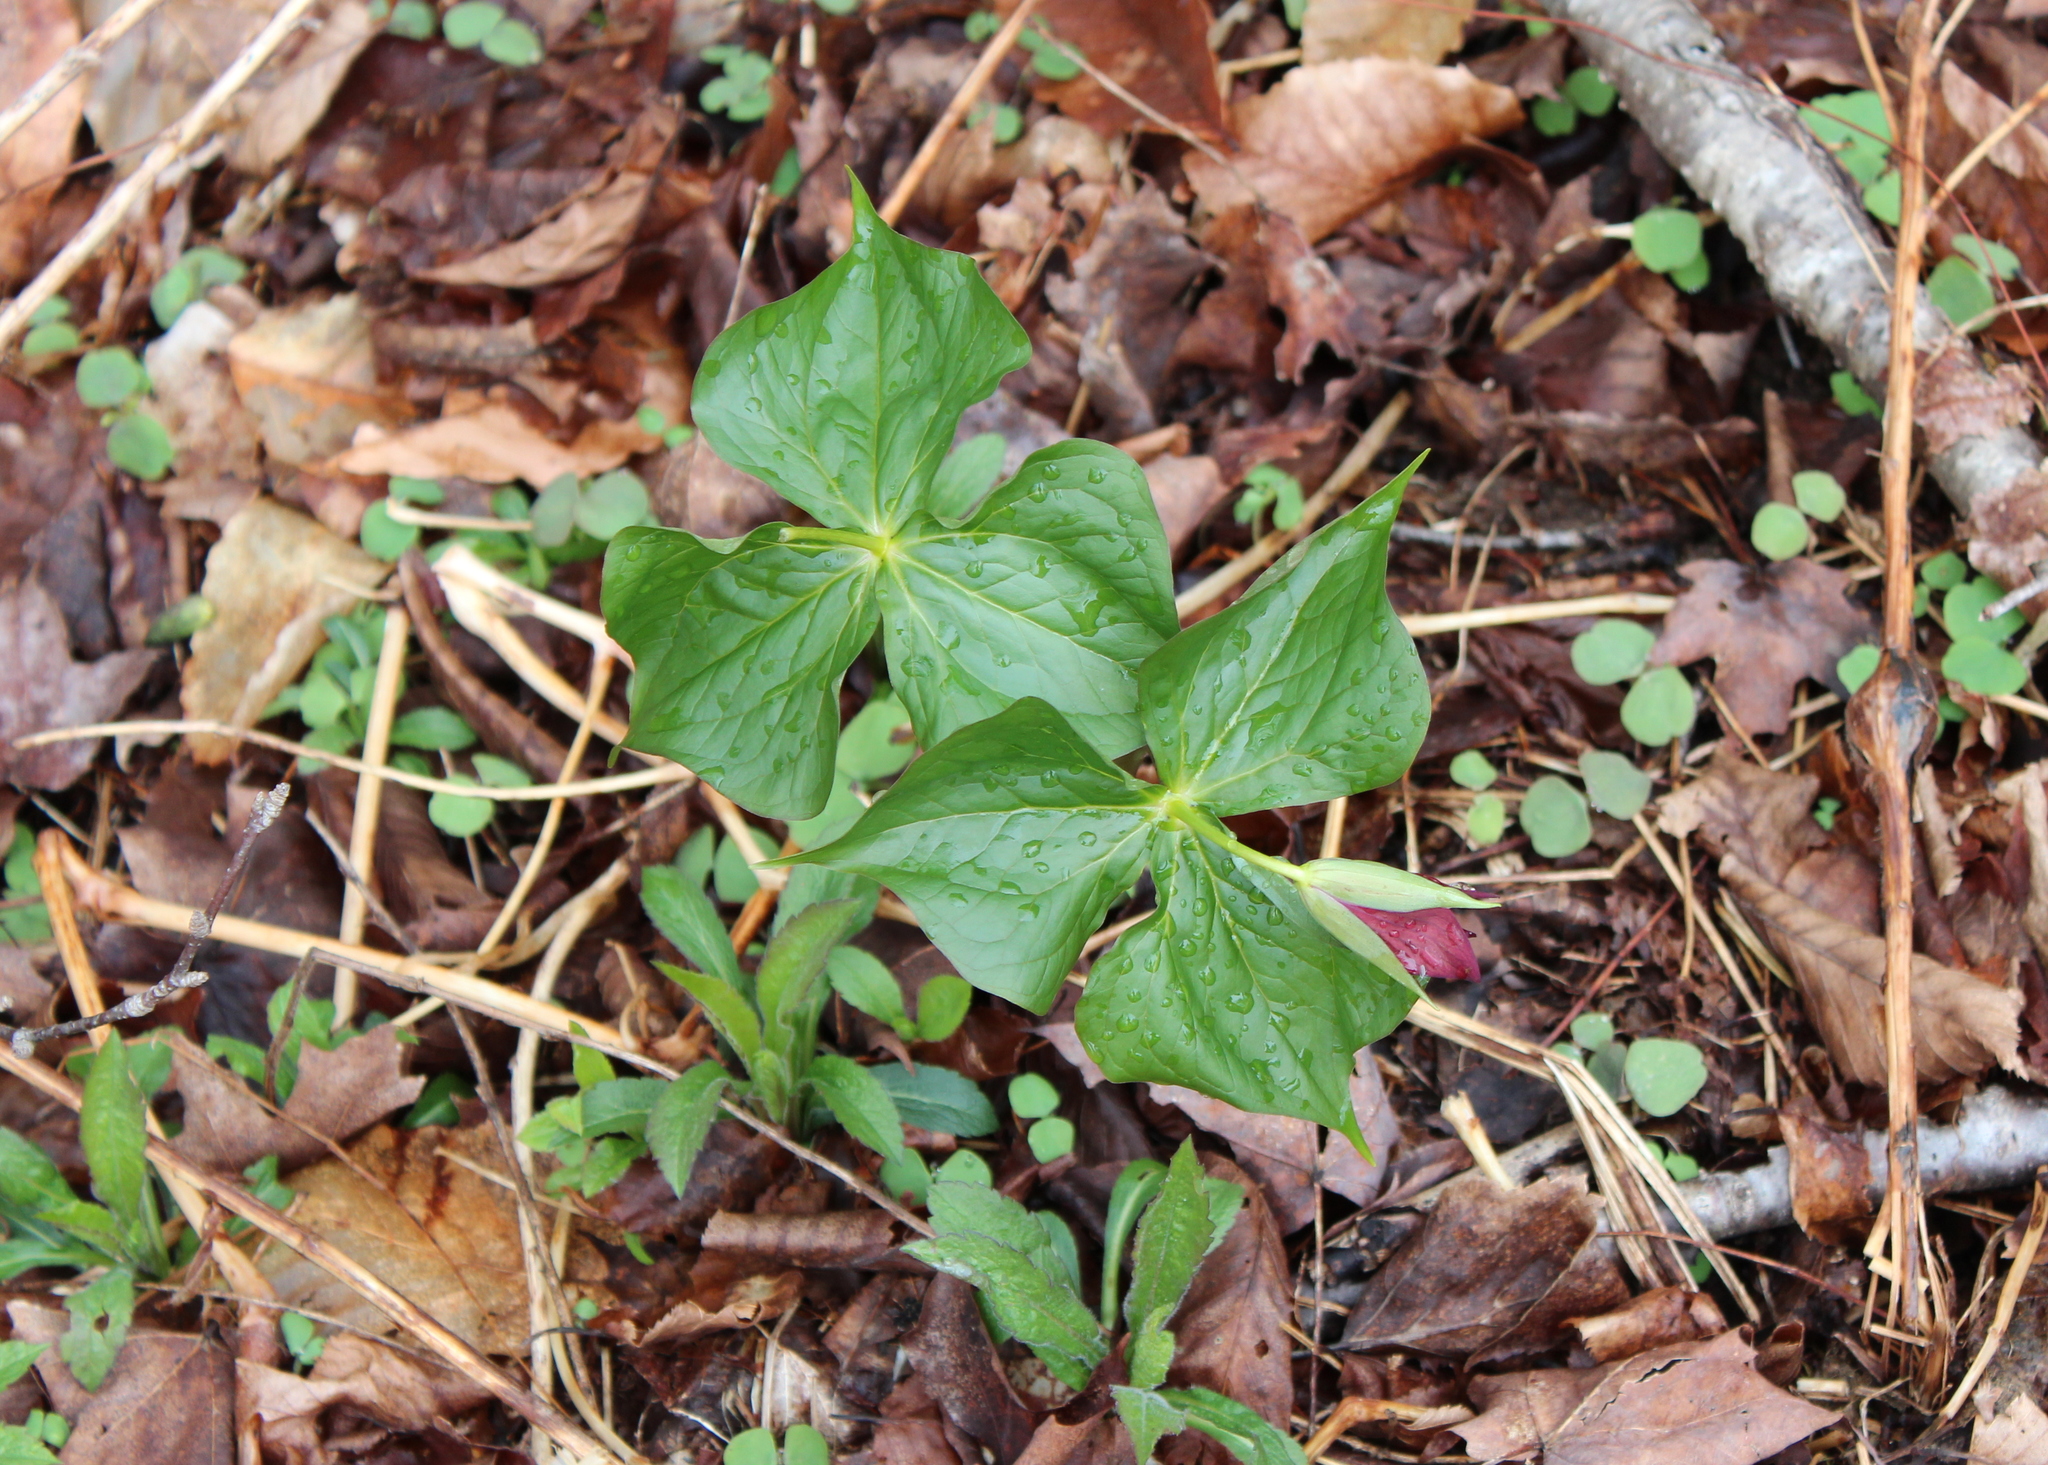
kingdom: Plantae
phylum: Tracheophyta
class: Liliopsida
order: Liliales
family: Melanthiaceae
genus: Trillium
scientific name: Trillium erectum
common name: Purple trillium
